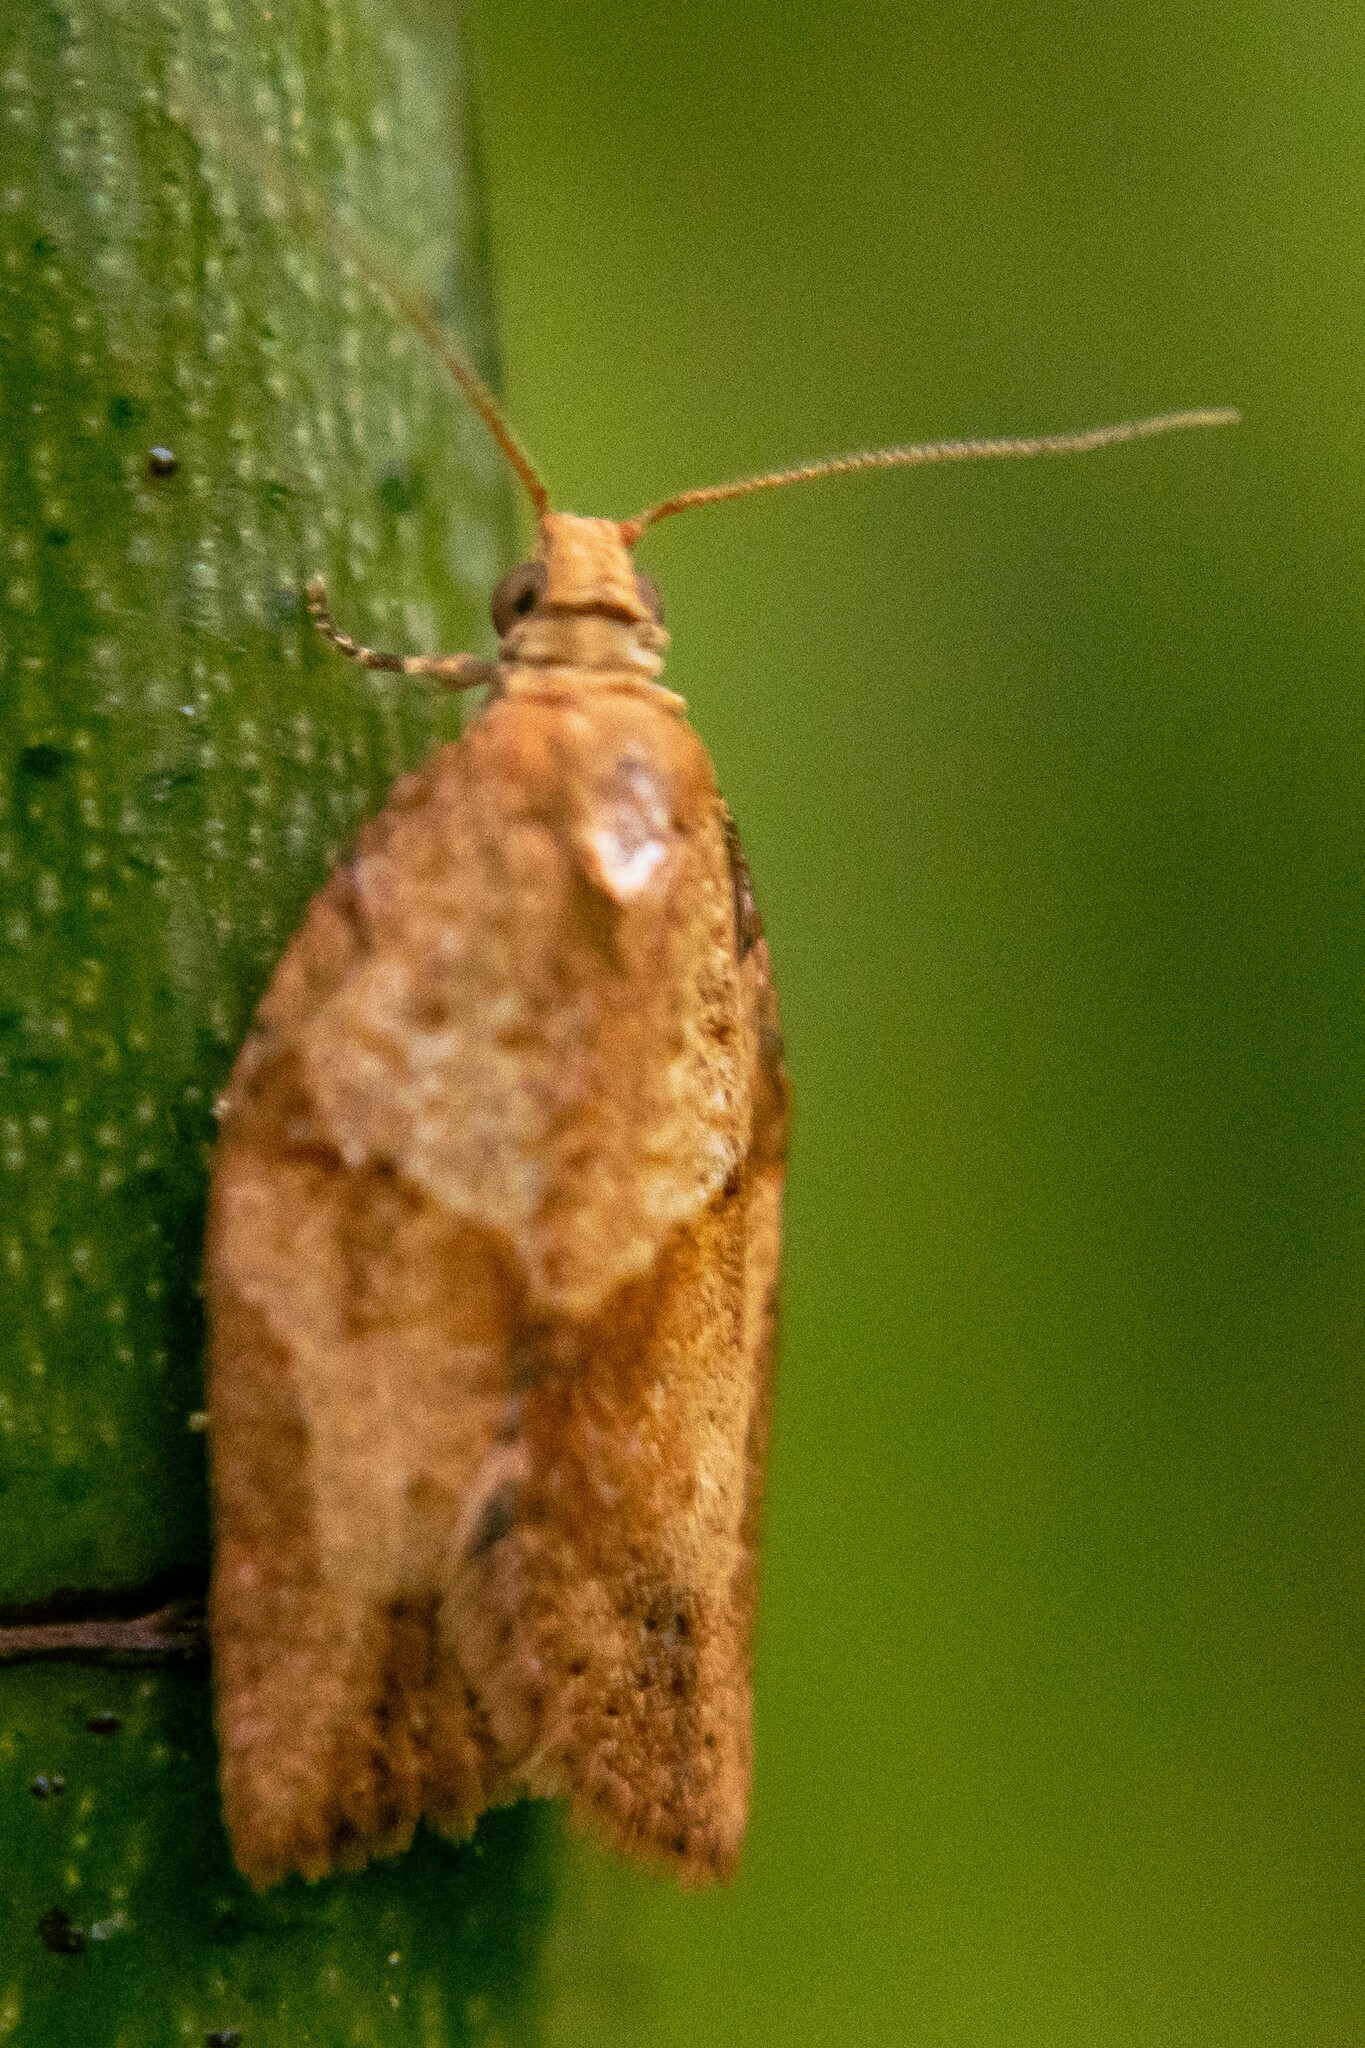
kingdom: Animalia
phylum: Arthropoda
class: Insecta
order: Lepidoptera
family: Tortricidae
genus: Epiphyas
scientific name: Epiphyas postvittana
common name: Light brown apple moth
